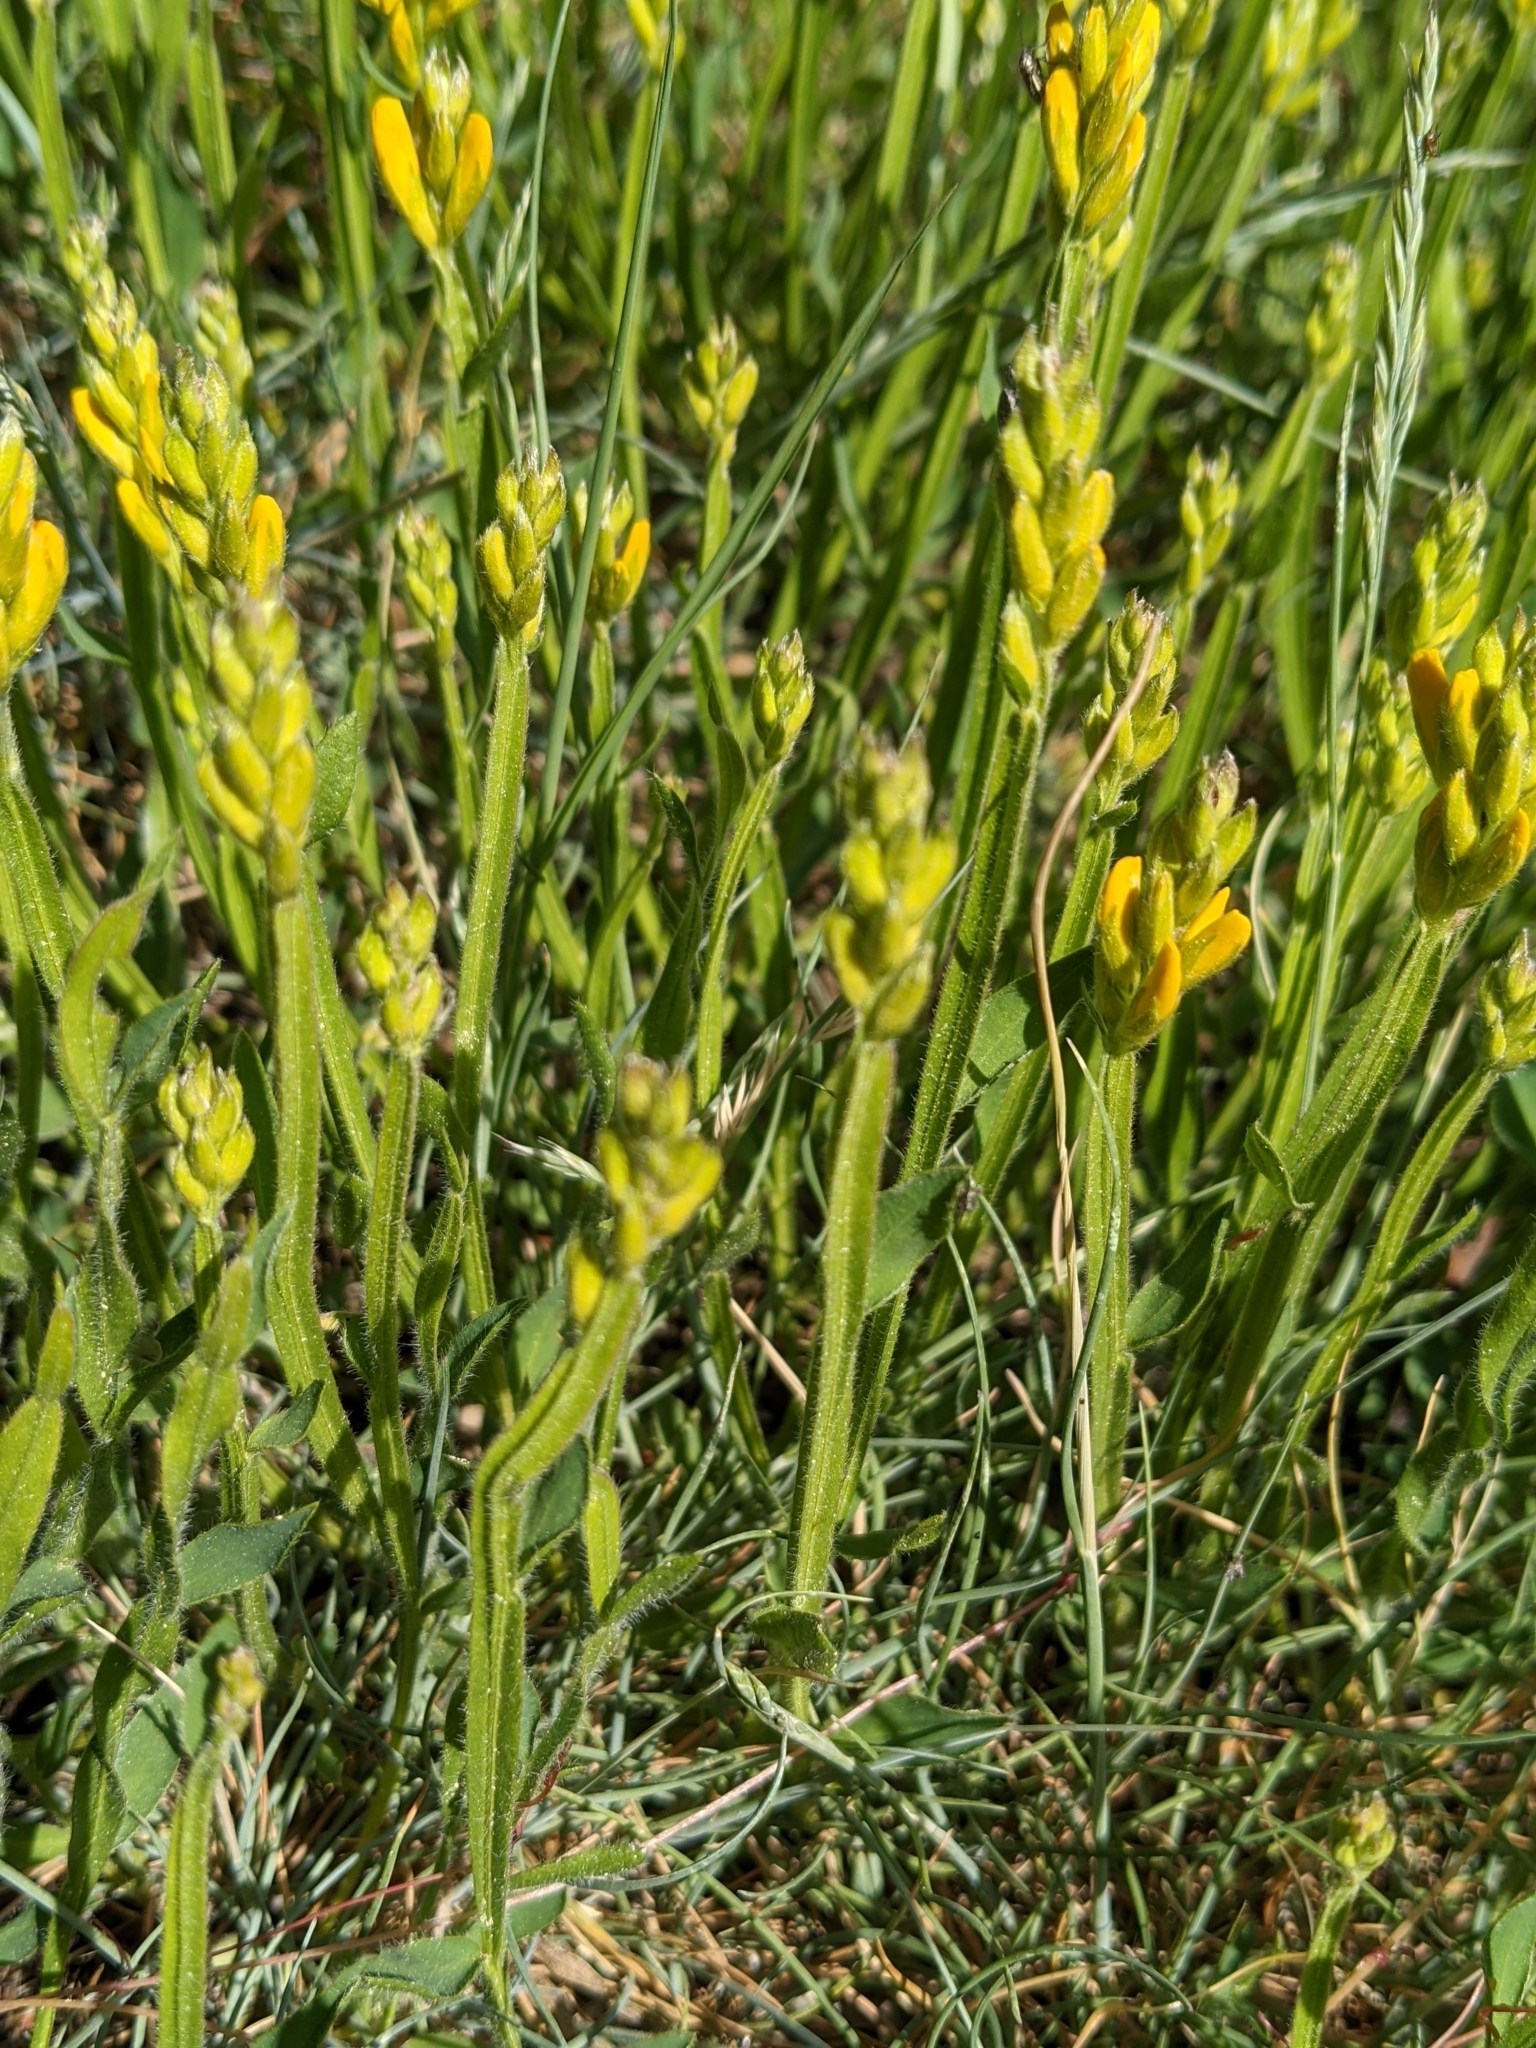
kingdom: Plantae
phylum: Tracheophyta
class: Magnoliopsida
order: Fabales
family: Fabaceae
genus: Genista
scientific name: Genista sagittalis
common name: Winged greenweed
